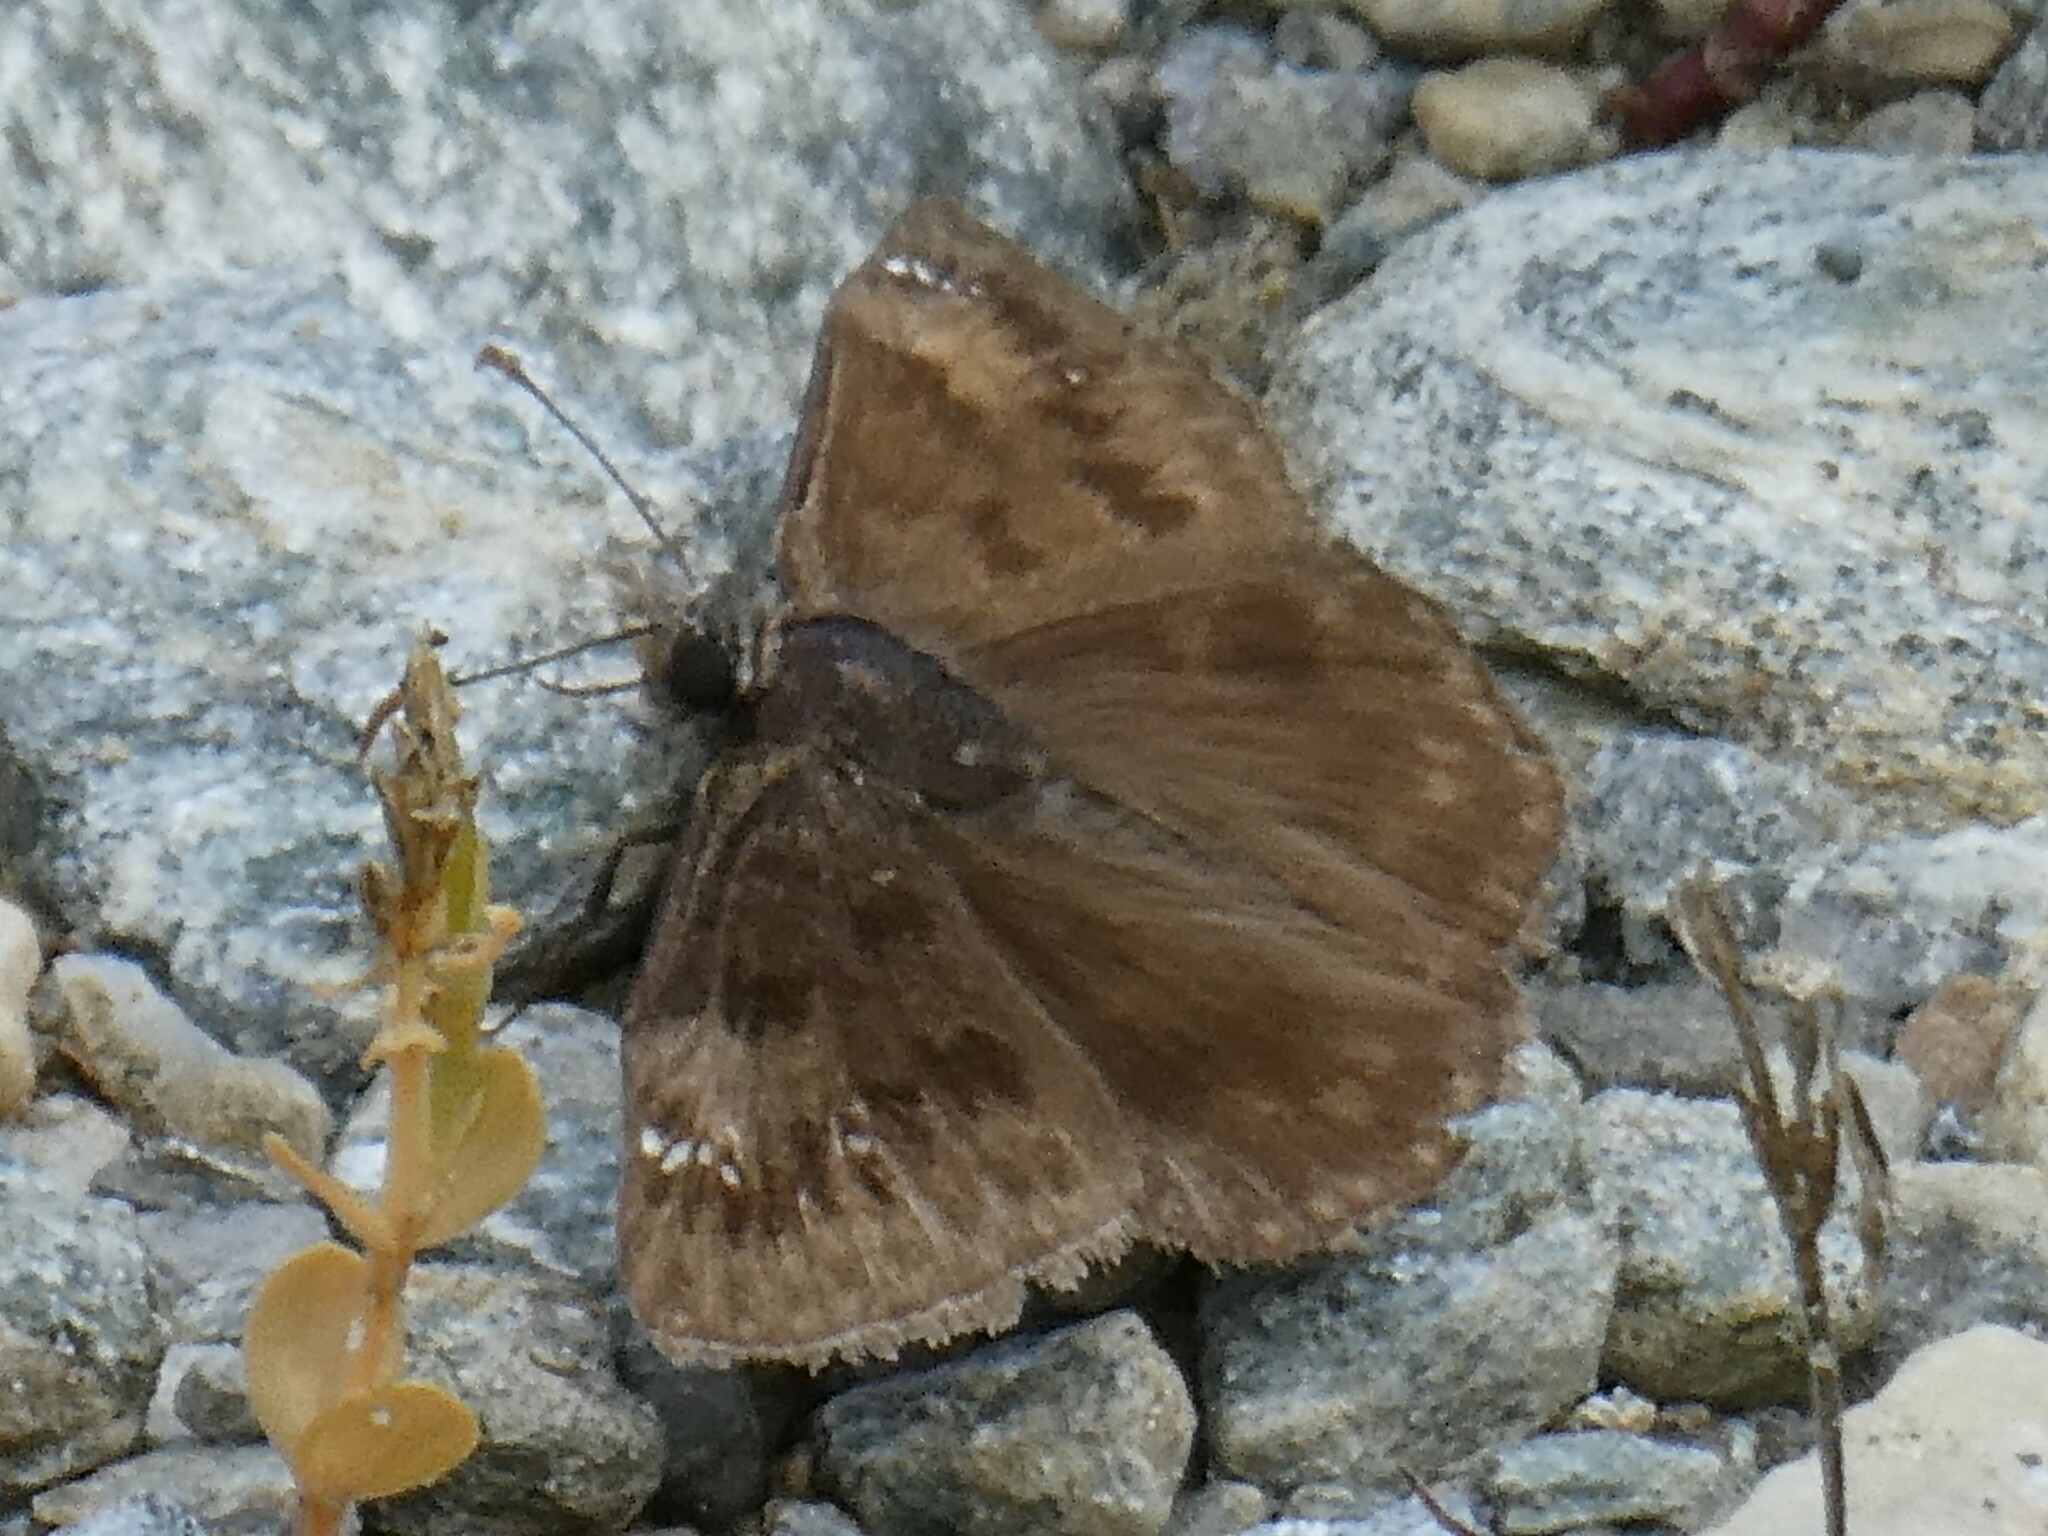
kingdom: Animalia
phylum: Arthropoda
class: Insecta
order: Lepidoptera
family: Hesperiidae
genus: Erynnis
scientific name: Erynnis baptisiae
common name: Wild indigo duskywing
